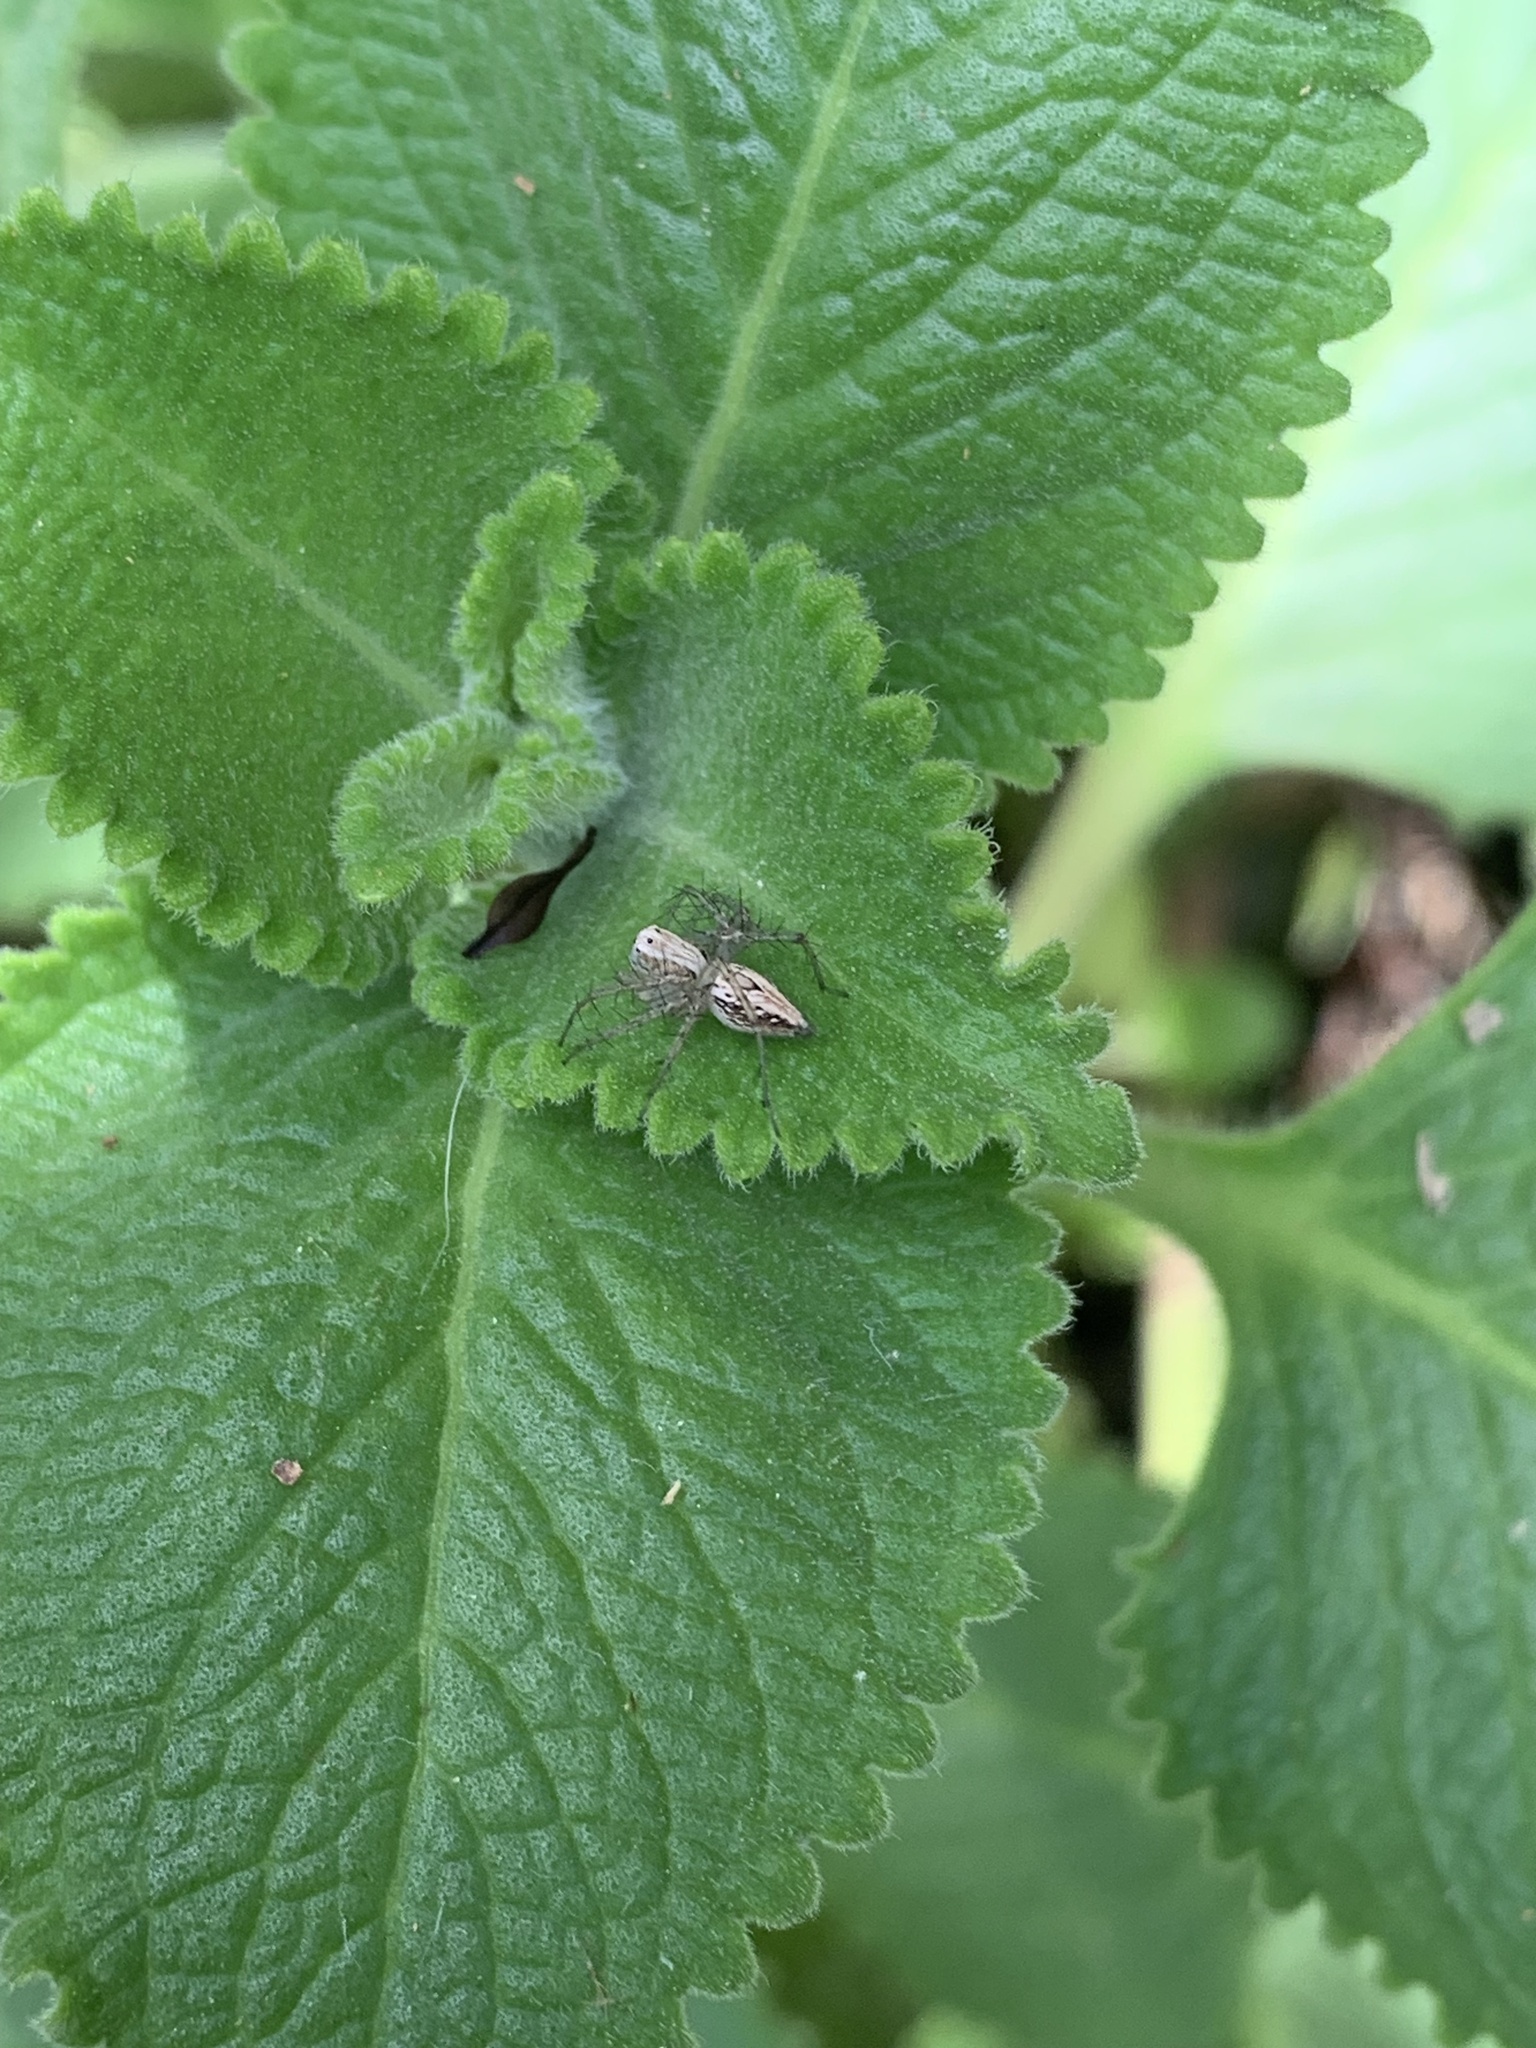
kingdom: Animalia
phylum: Arthropoda
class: Arachnida
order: Araneae
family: Oxyopidae
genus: Oxyopes
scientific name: Oxyopes salticus
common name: Lynx spiders
